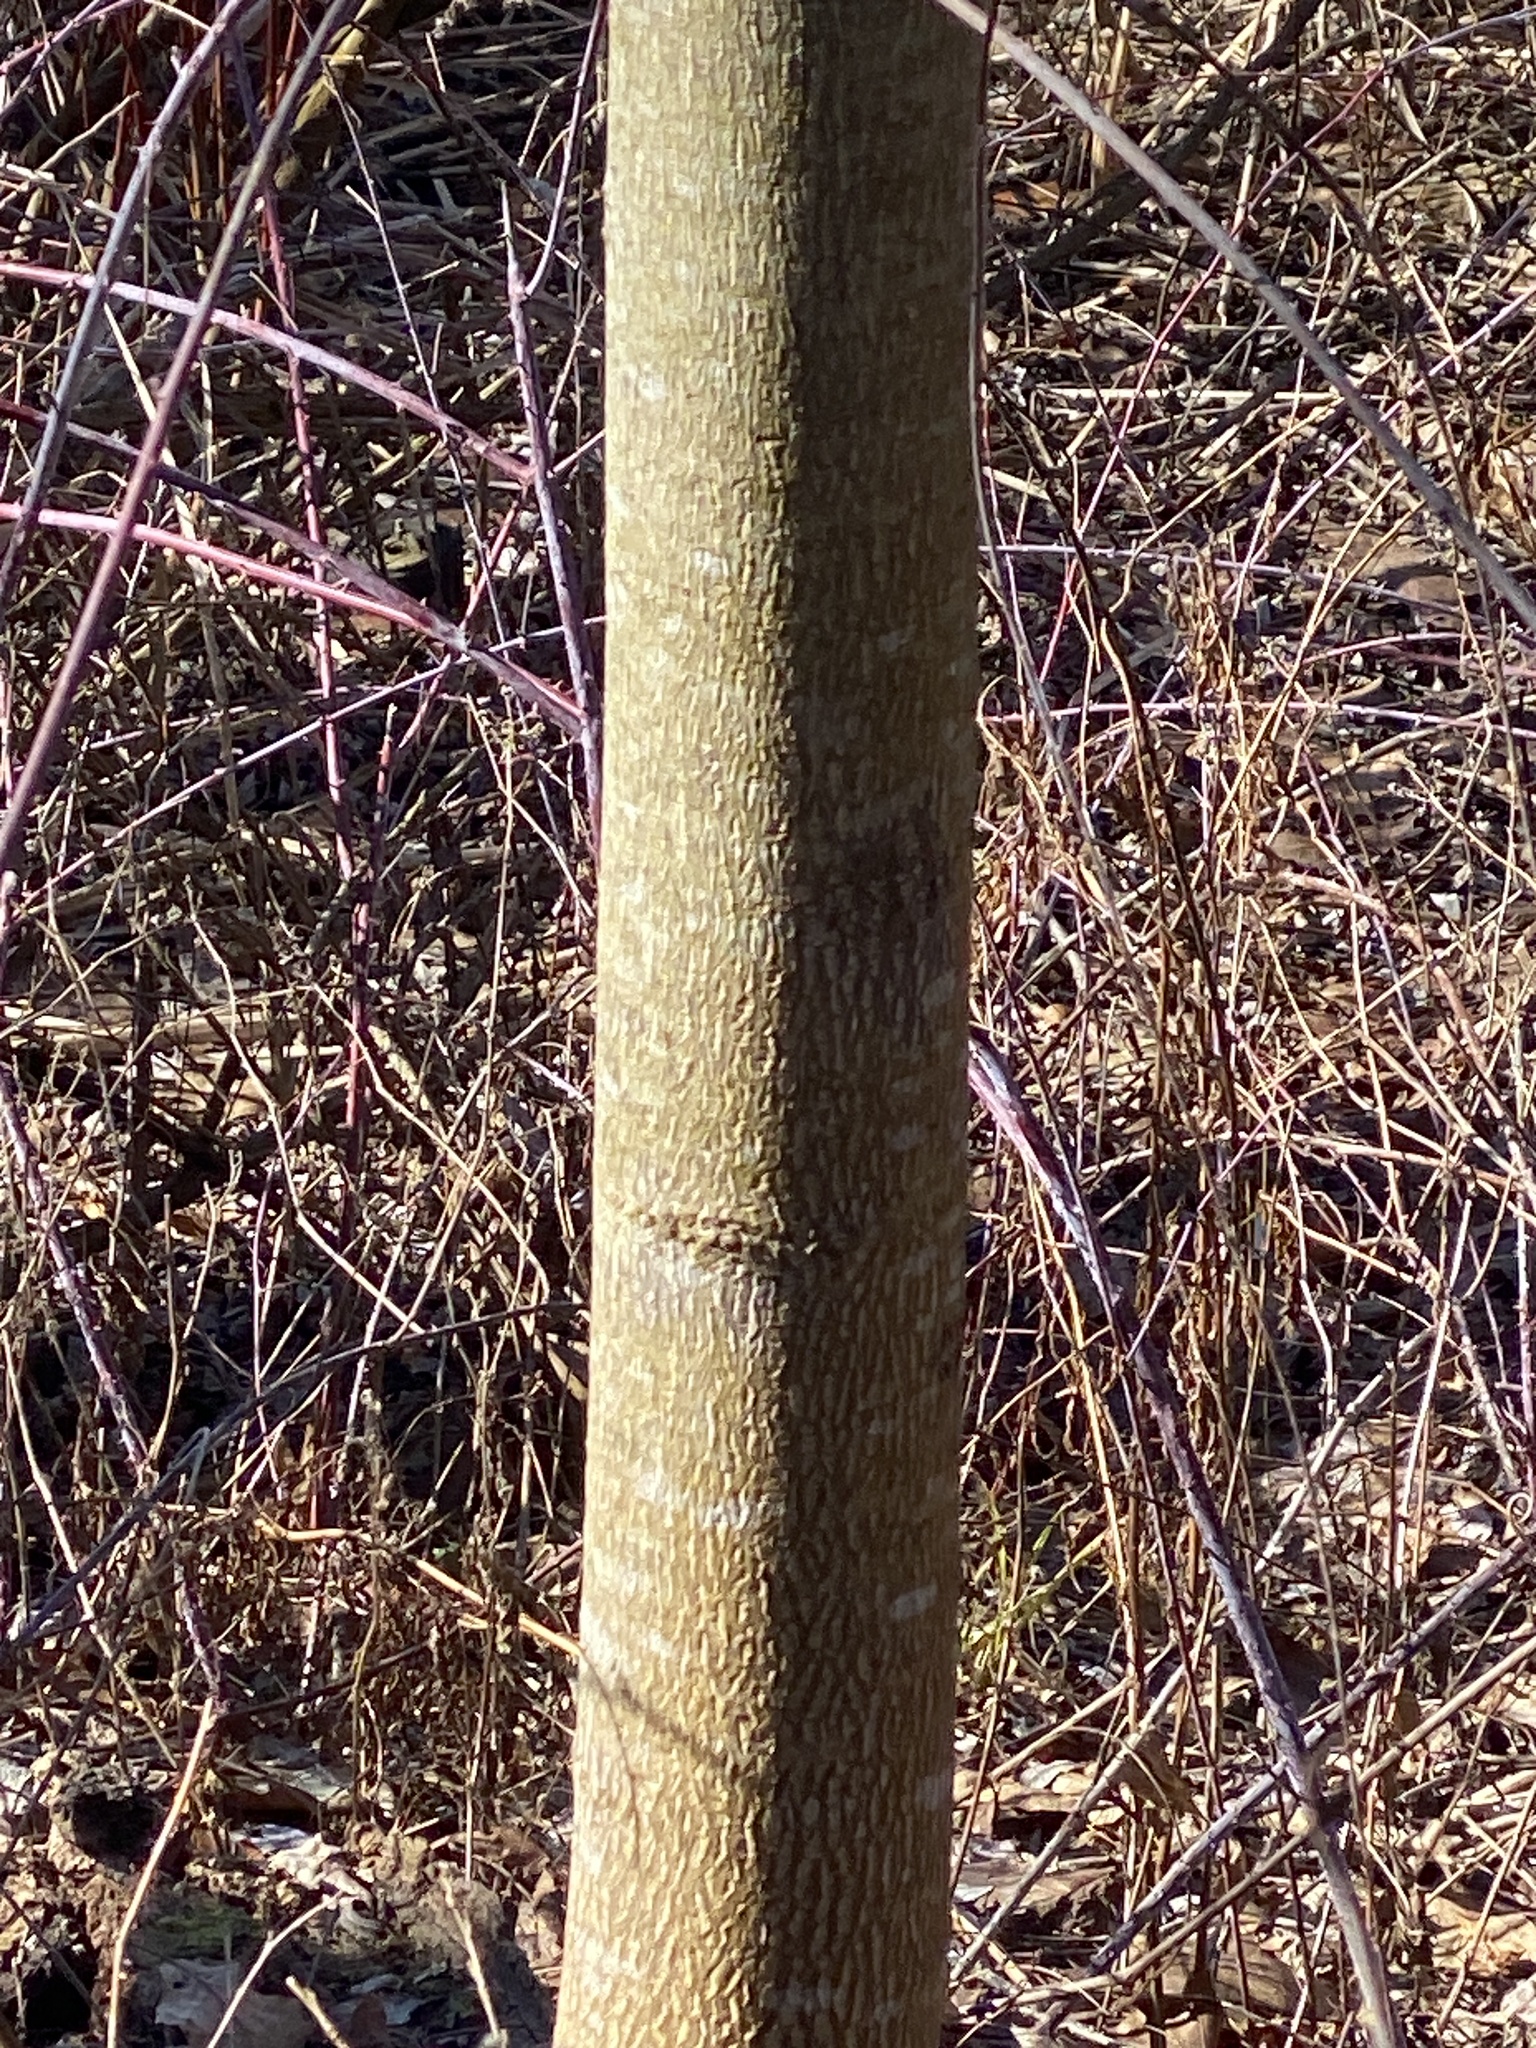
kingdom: Plantae
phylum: Tracheophyta
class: Magnoliopsida
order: Magnoliales
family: Magnoliaceae
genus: Liriodendron
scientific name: Liriodendron tulipifera
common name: Tulip tree
